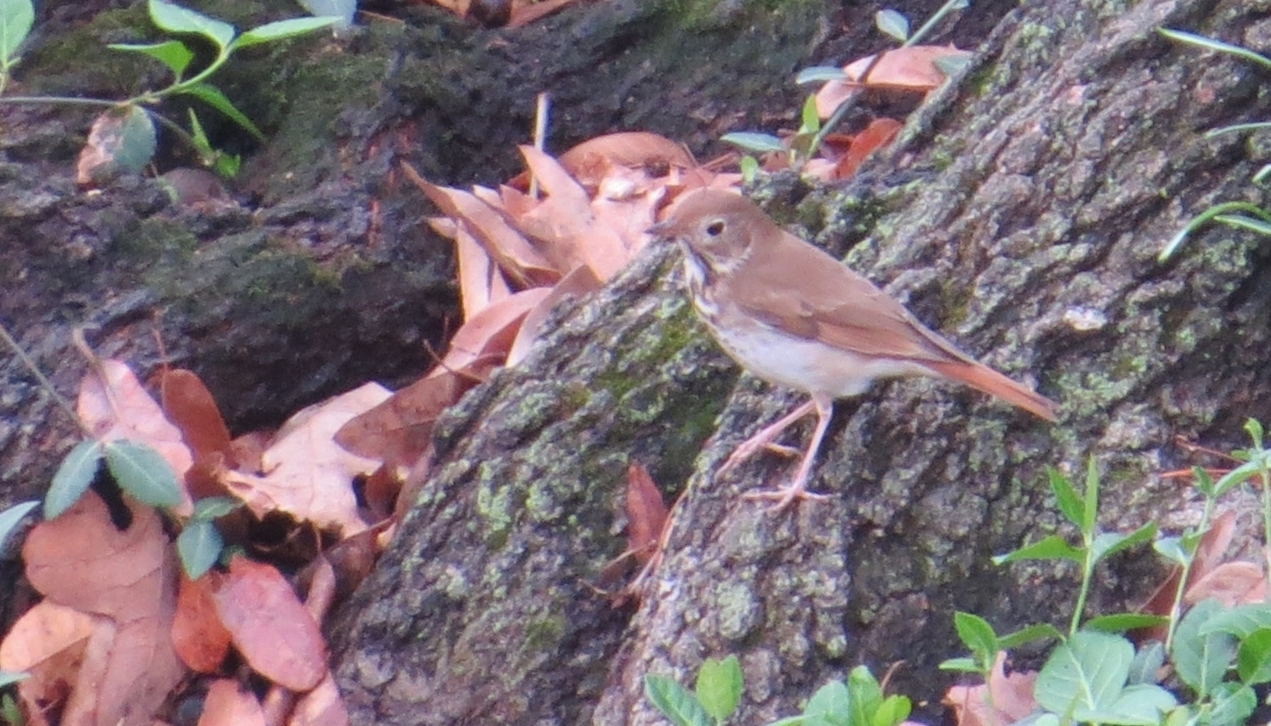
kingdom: Animalia
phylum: Chordata
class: Aves
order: Passeriformes
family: Turdidae
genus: Catharus
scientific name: Catharus guttatus
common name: Hermit thrush
